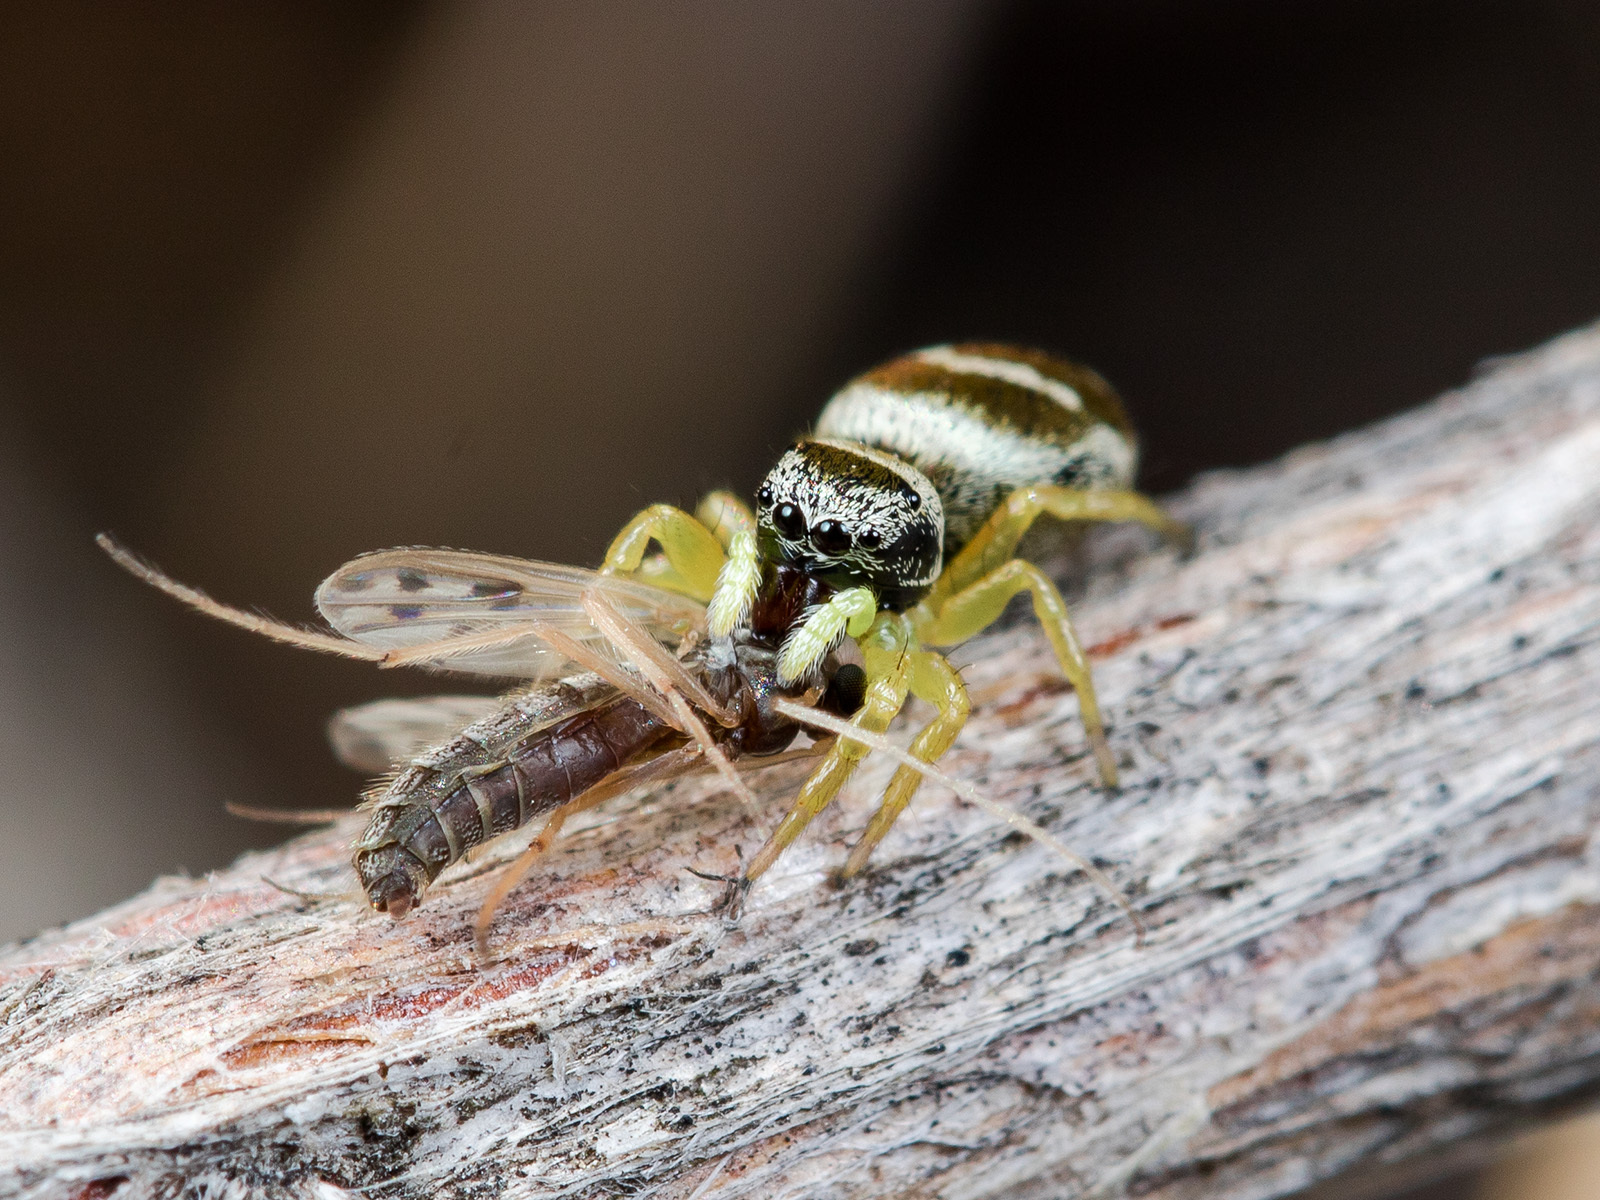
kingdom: Animalia
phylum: Arthropoda
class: Arachnida
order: Araneae
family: Salticidae
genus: Heliophanus
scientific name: Heliophanus chovdensis
